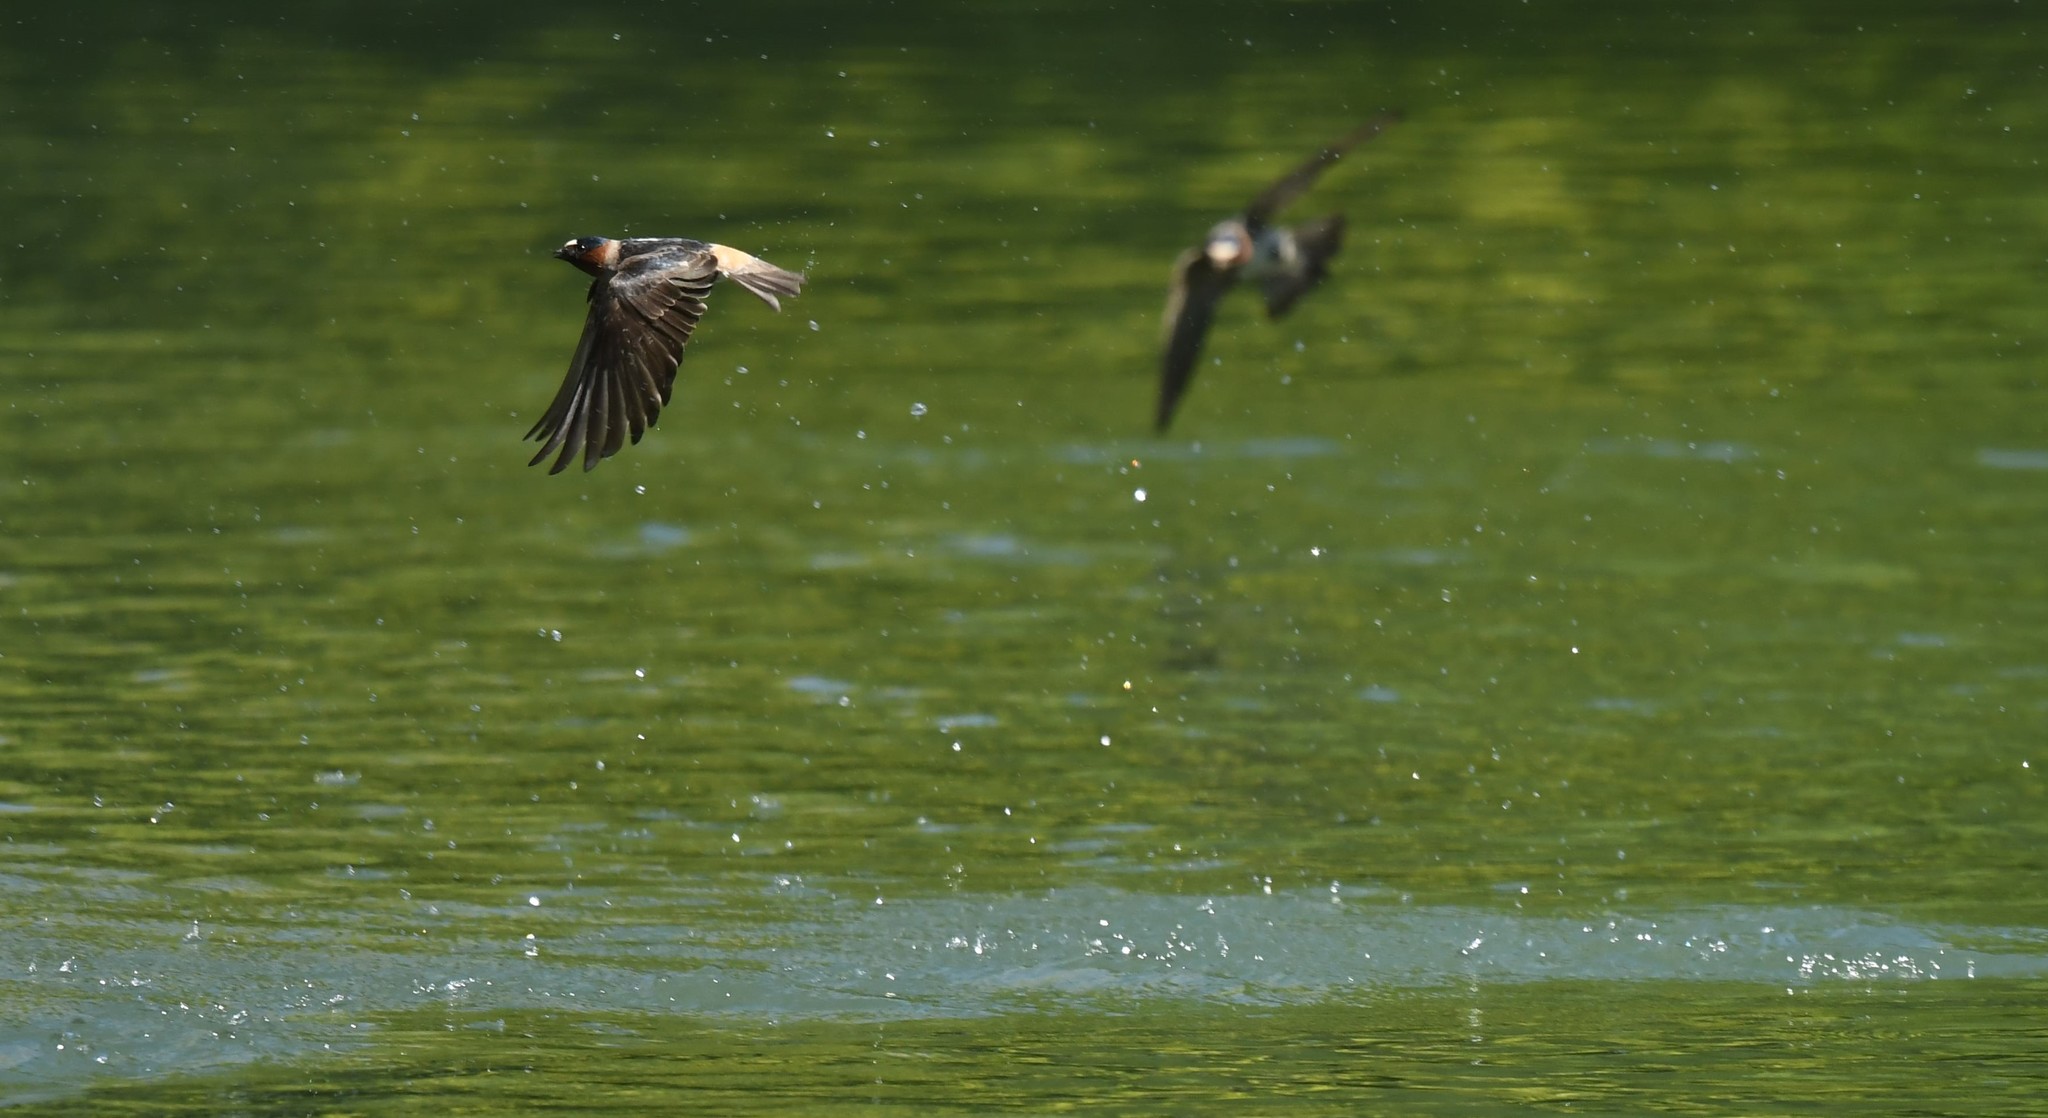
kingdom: Animalia
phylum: Chordata
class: Aves
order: Passeriformes
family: Hirundinidae
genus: Petrochelidon
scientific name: Petrochelidon pyrrhonota
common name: American cliff swallow
